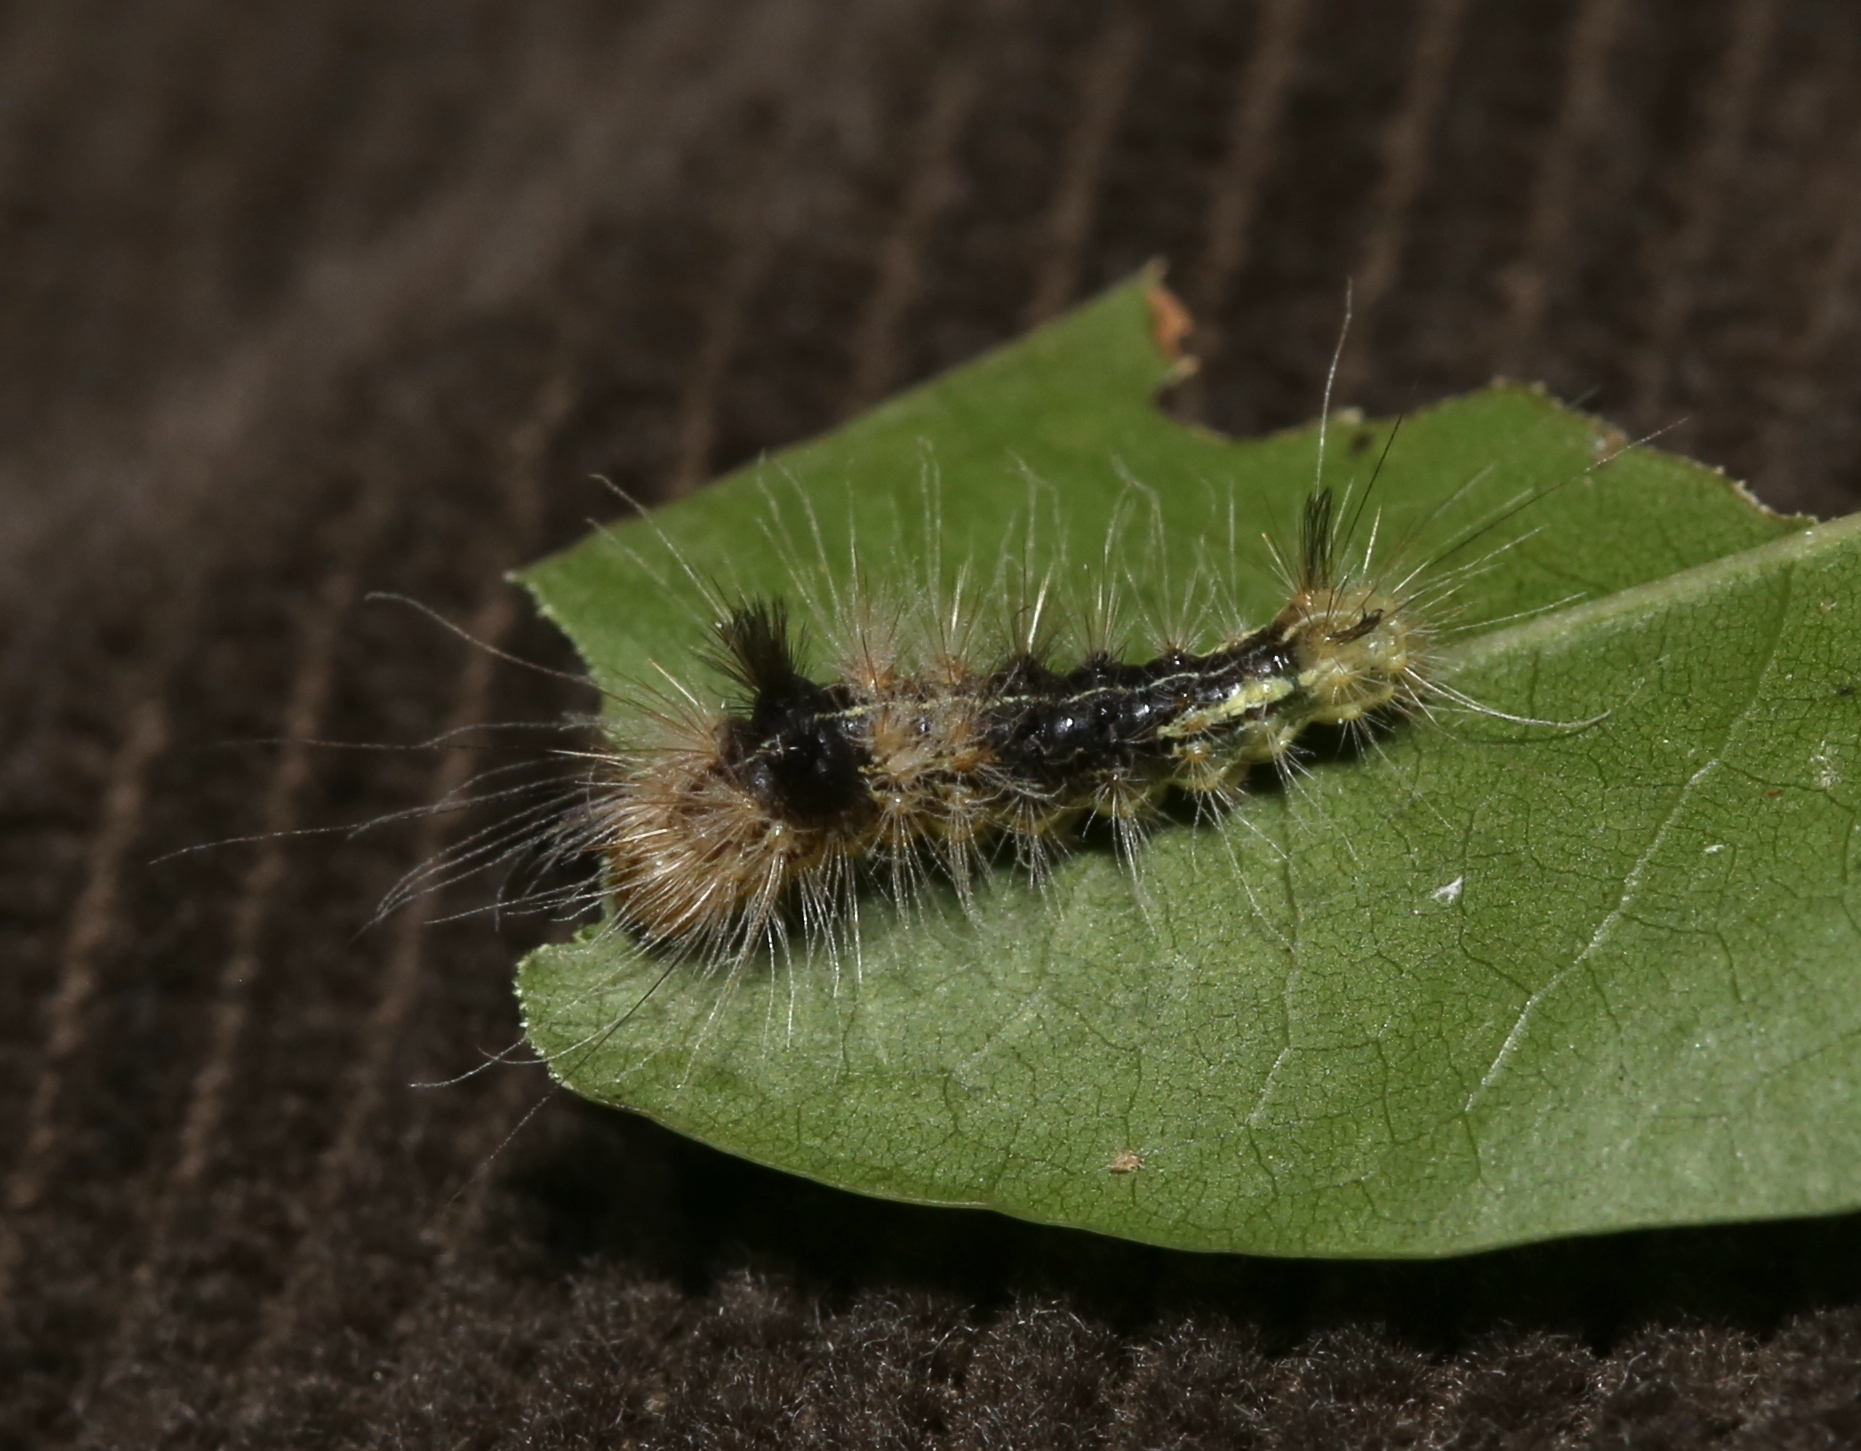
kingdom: Animalia
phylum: Arthropoda
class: Insecta
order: Lepidoptera
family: Noctuidae
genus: Acronicta
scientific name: Acronicta impleta
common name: Powdered dagger
